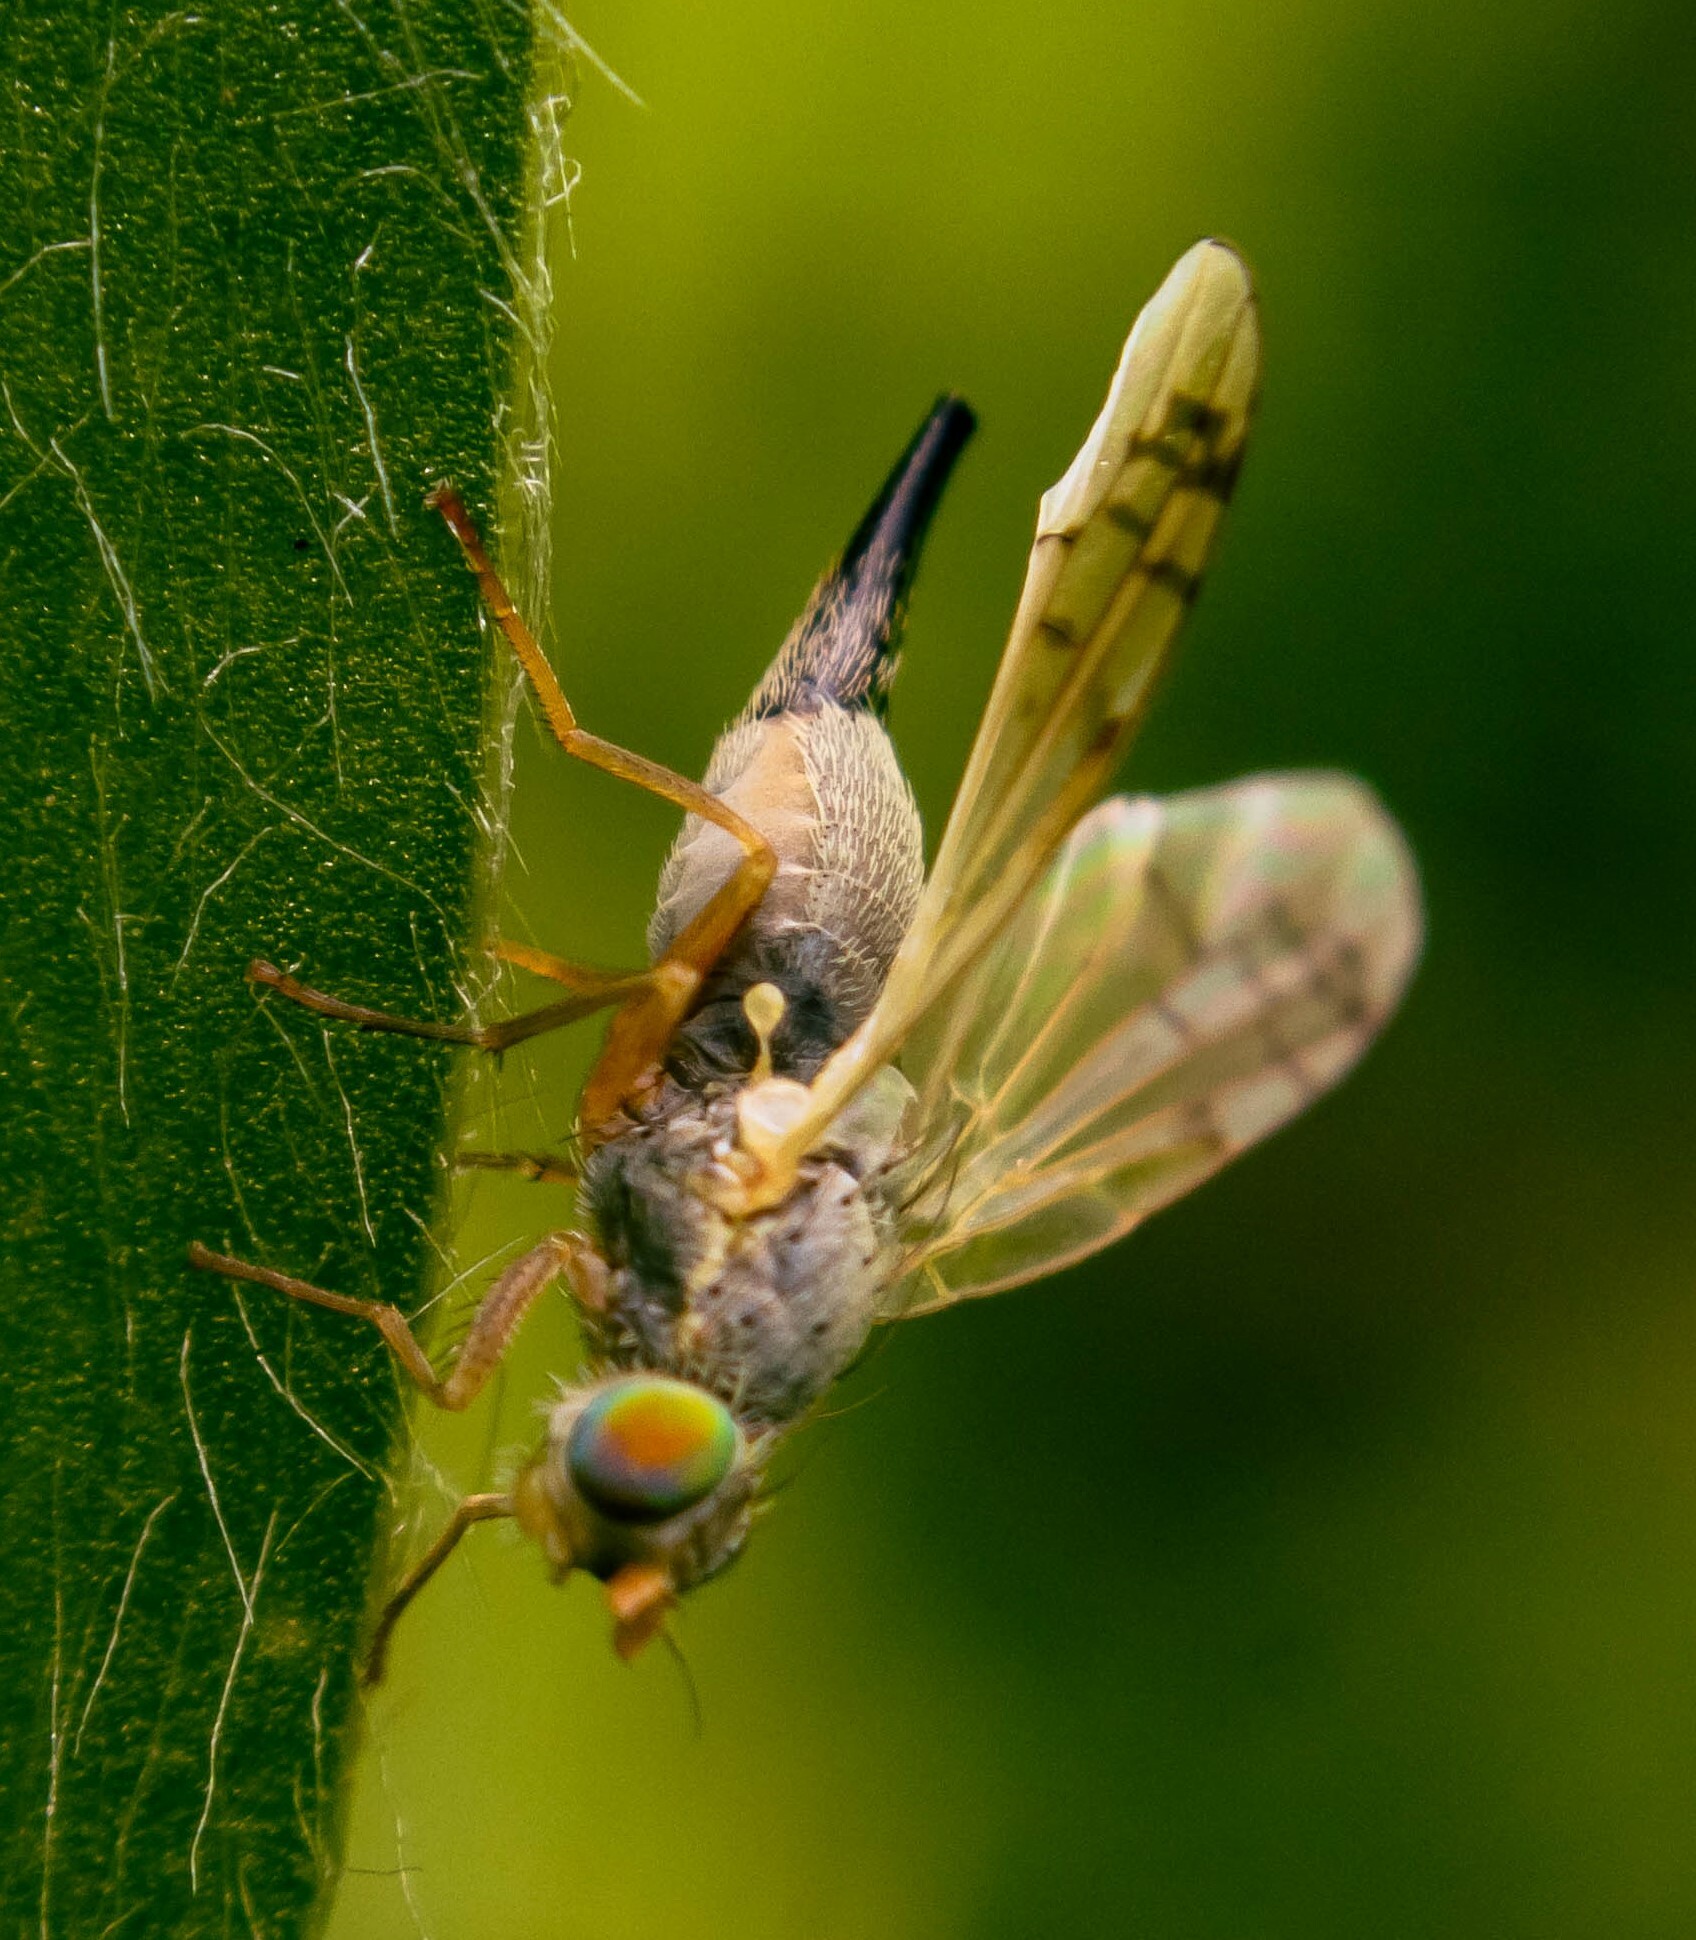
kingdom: Animalia
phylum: Arthropoda
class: Insecta
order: Diptera
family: Tephritidae
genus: Acanthiophilus
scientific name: Acanthiophilus helianthi
